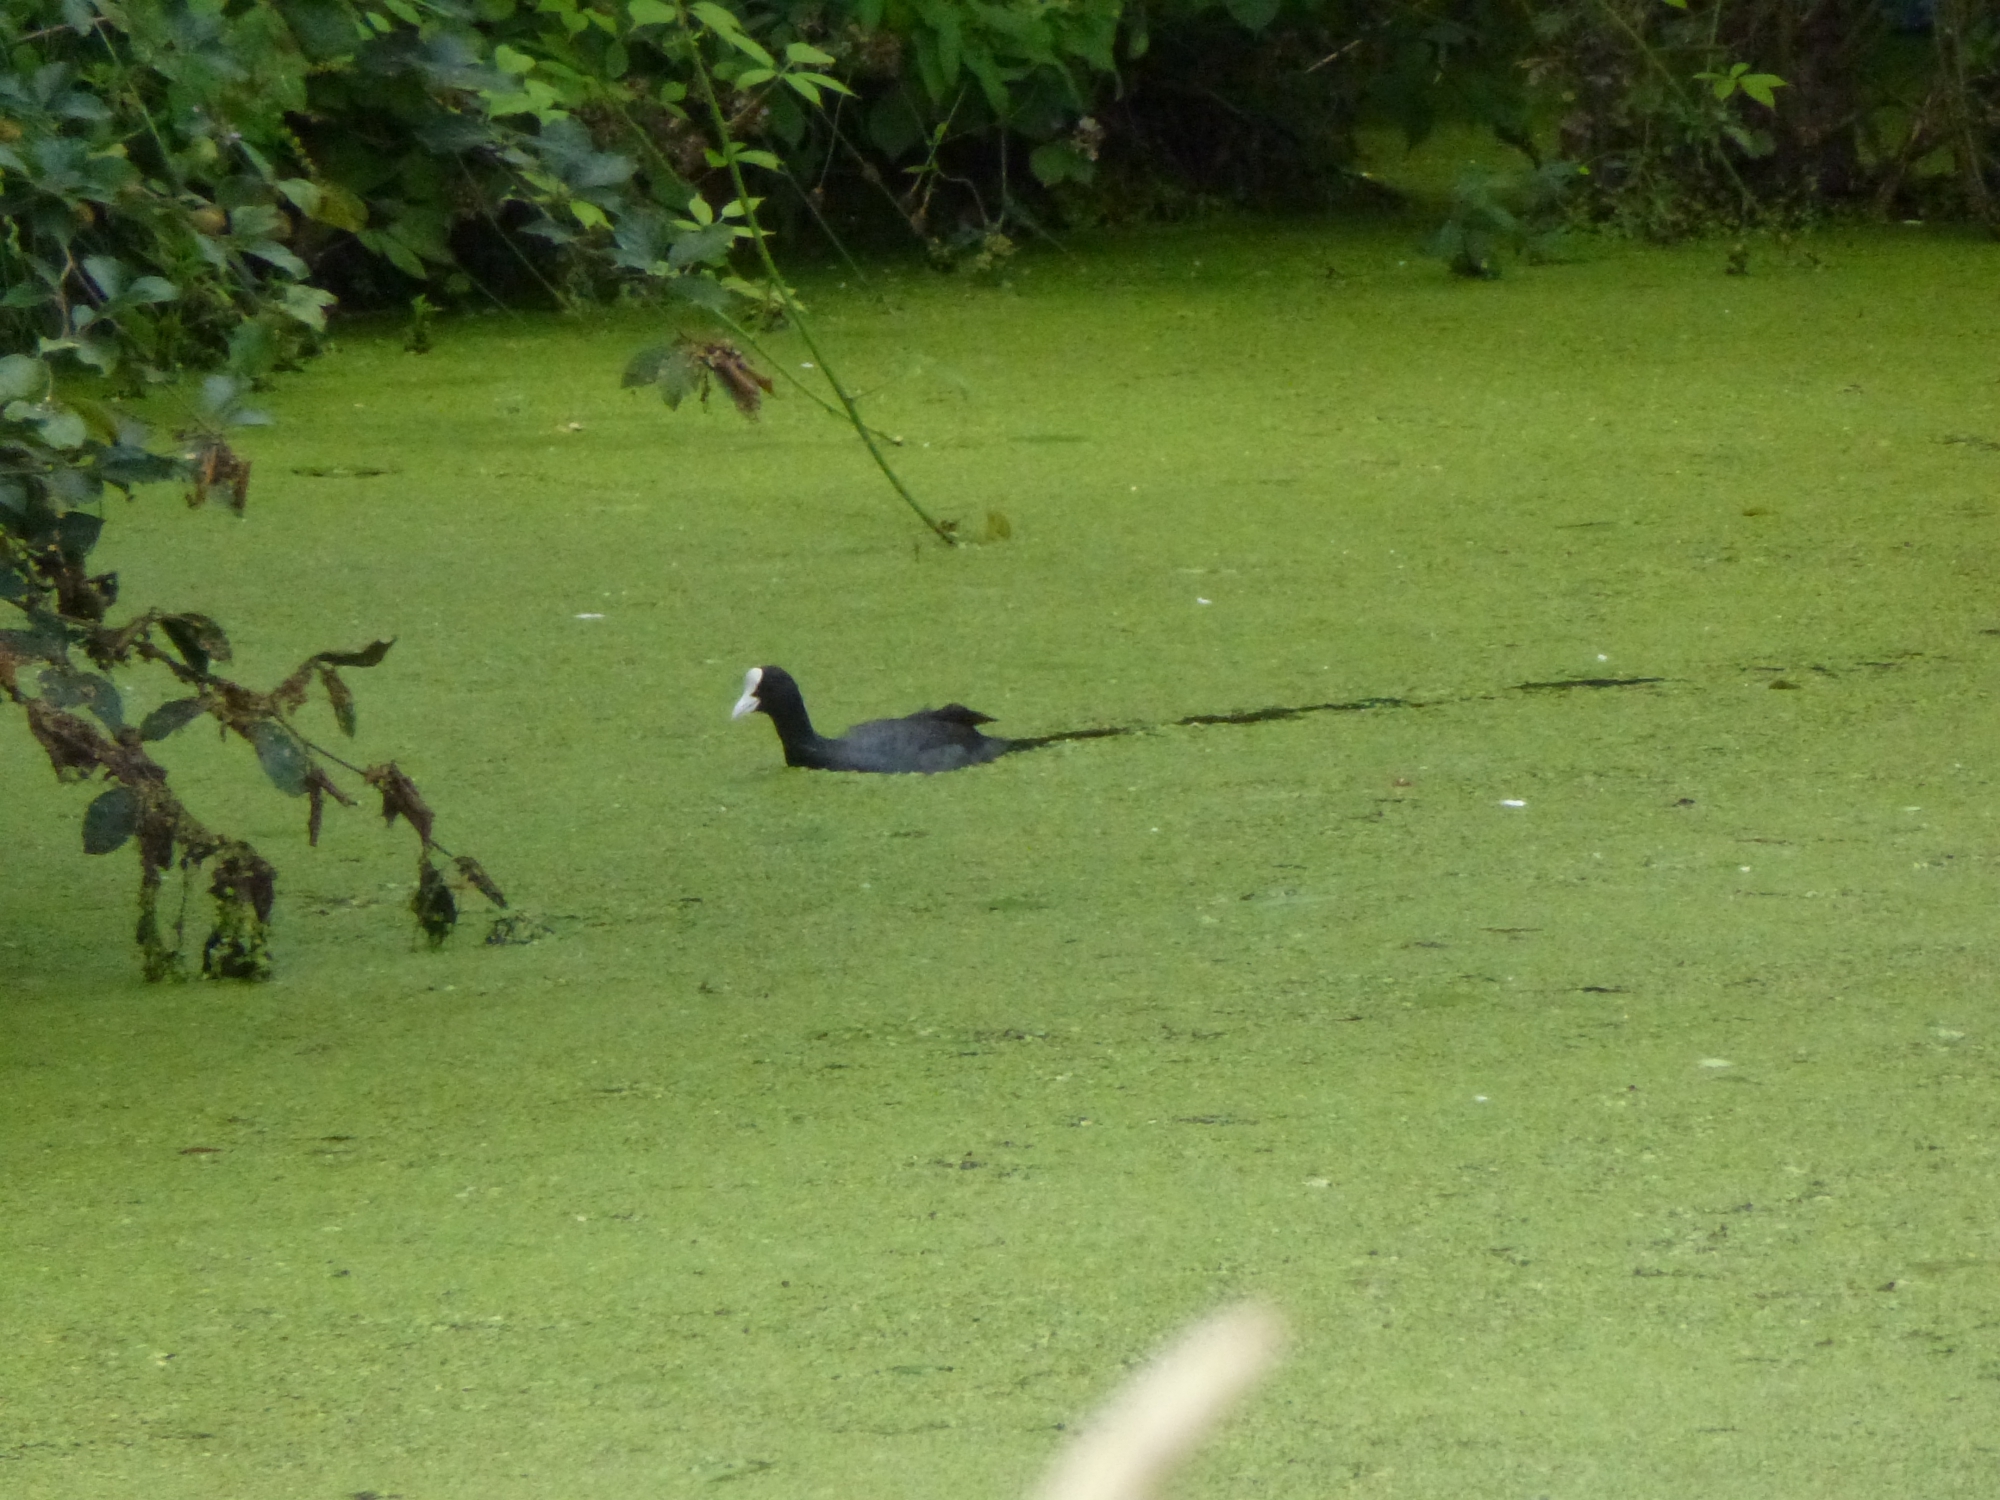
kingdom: Animalia
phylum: Chordata
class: Aves
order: Gruiformes
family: Rallidae
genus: Fulica
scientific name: Fulica atra
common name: Eurasian coot
